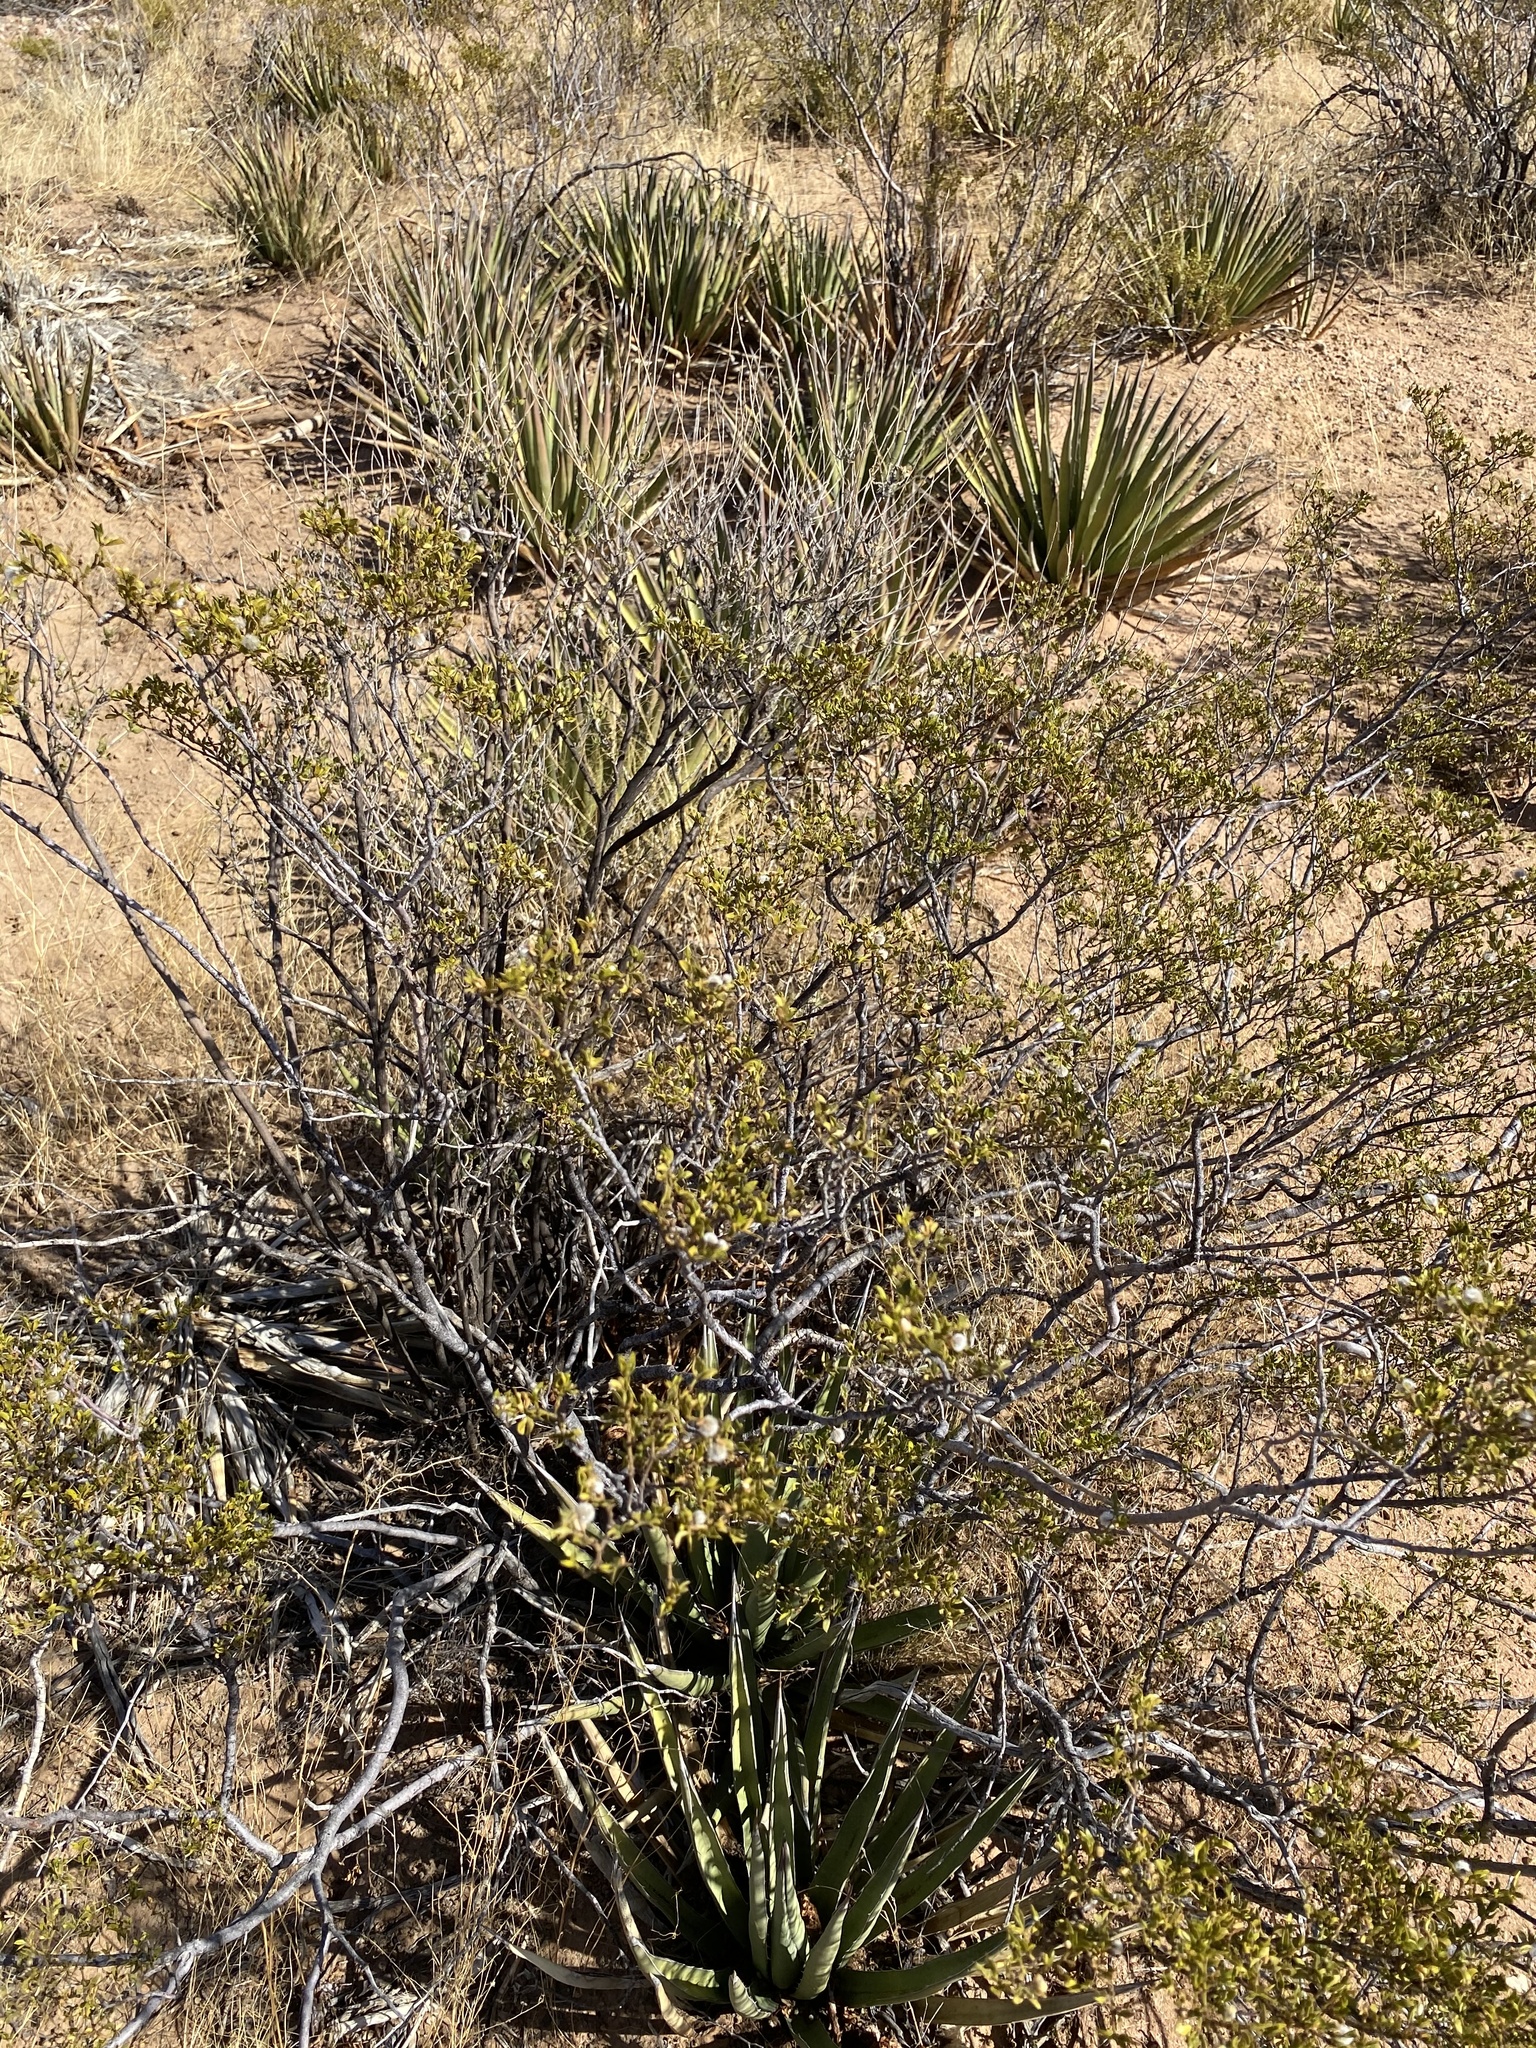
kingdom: Plantae
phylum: Tracheophyta
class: Magnoliopsida
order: Zygophyllales
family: Zygophyllaceae
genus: Larrea
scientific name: Larrea tridentata
